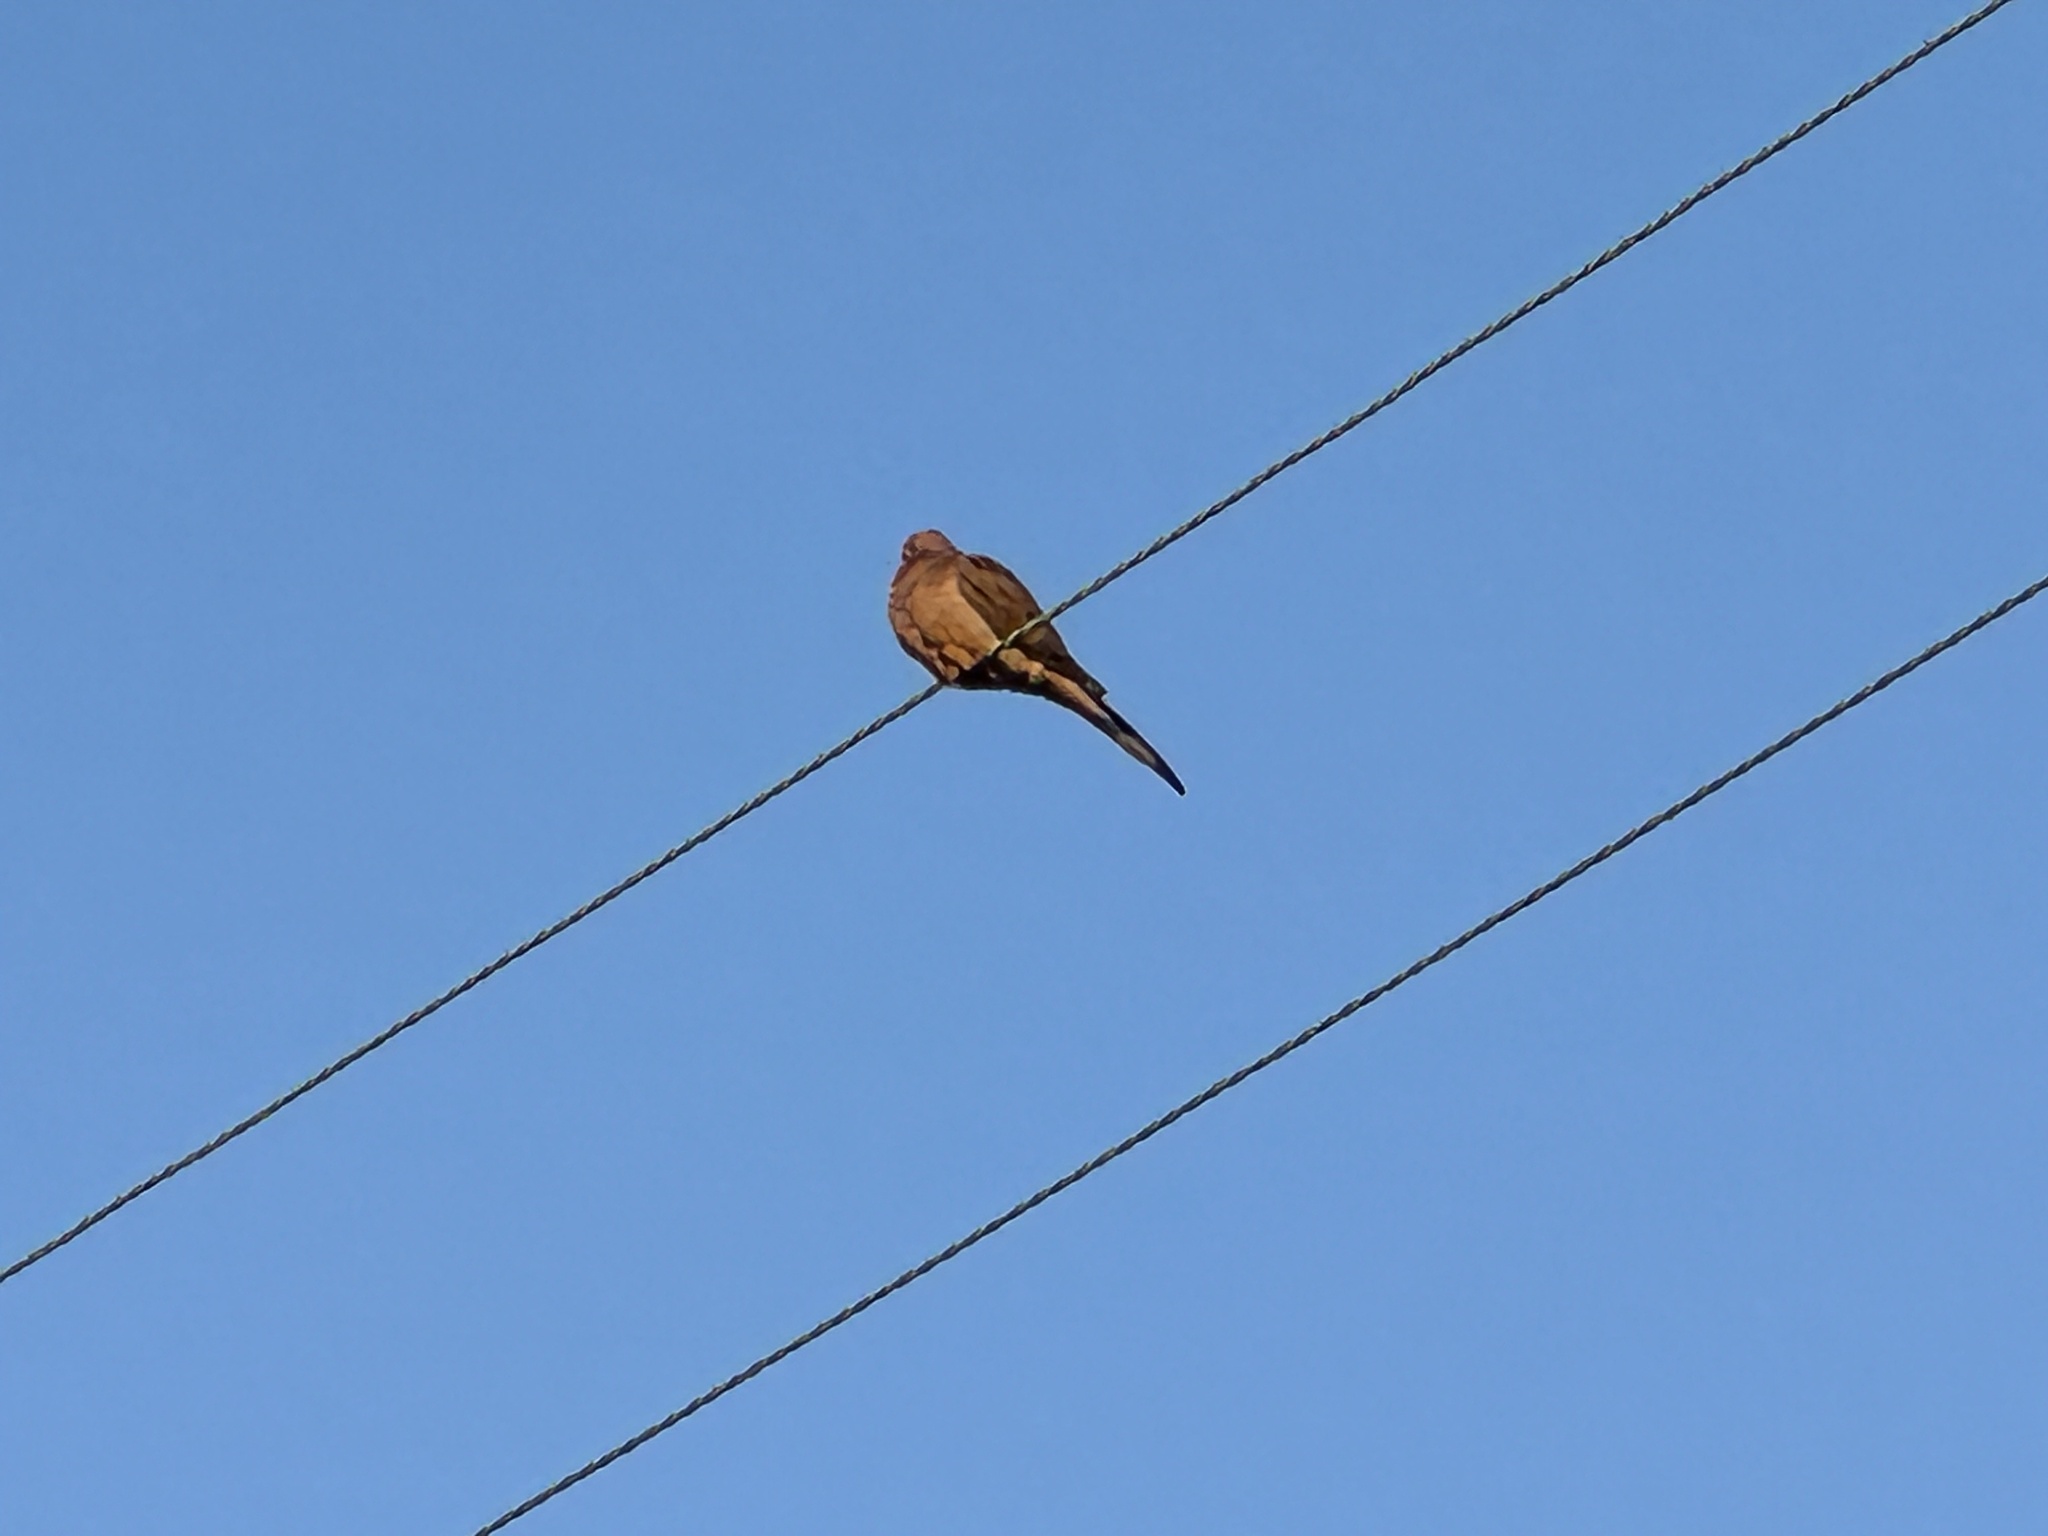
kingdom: Animalia
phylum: Chordata
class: Aves
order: Columbiformes
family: Columbidae
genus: Zenaida
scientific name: Zenaida macroura
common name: Mourning dove
